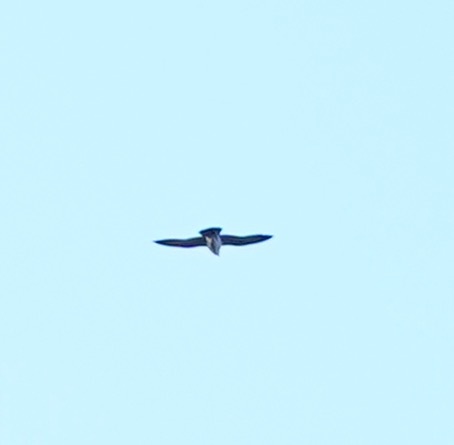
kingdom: Animalia
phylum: Chordata
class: Aves
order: Falconiformes
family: Falconidae
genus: Falco
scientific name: Falco peregrinus
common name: Peregrine falcon
